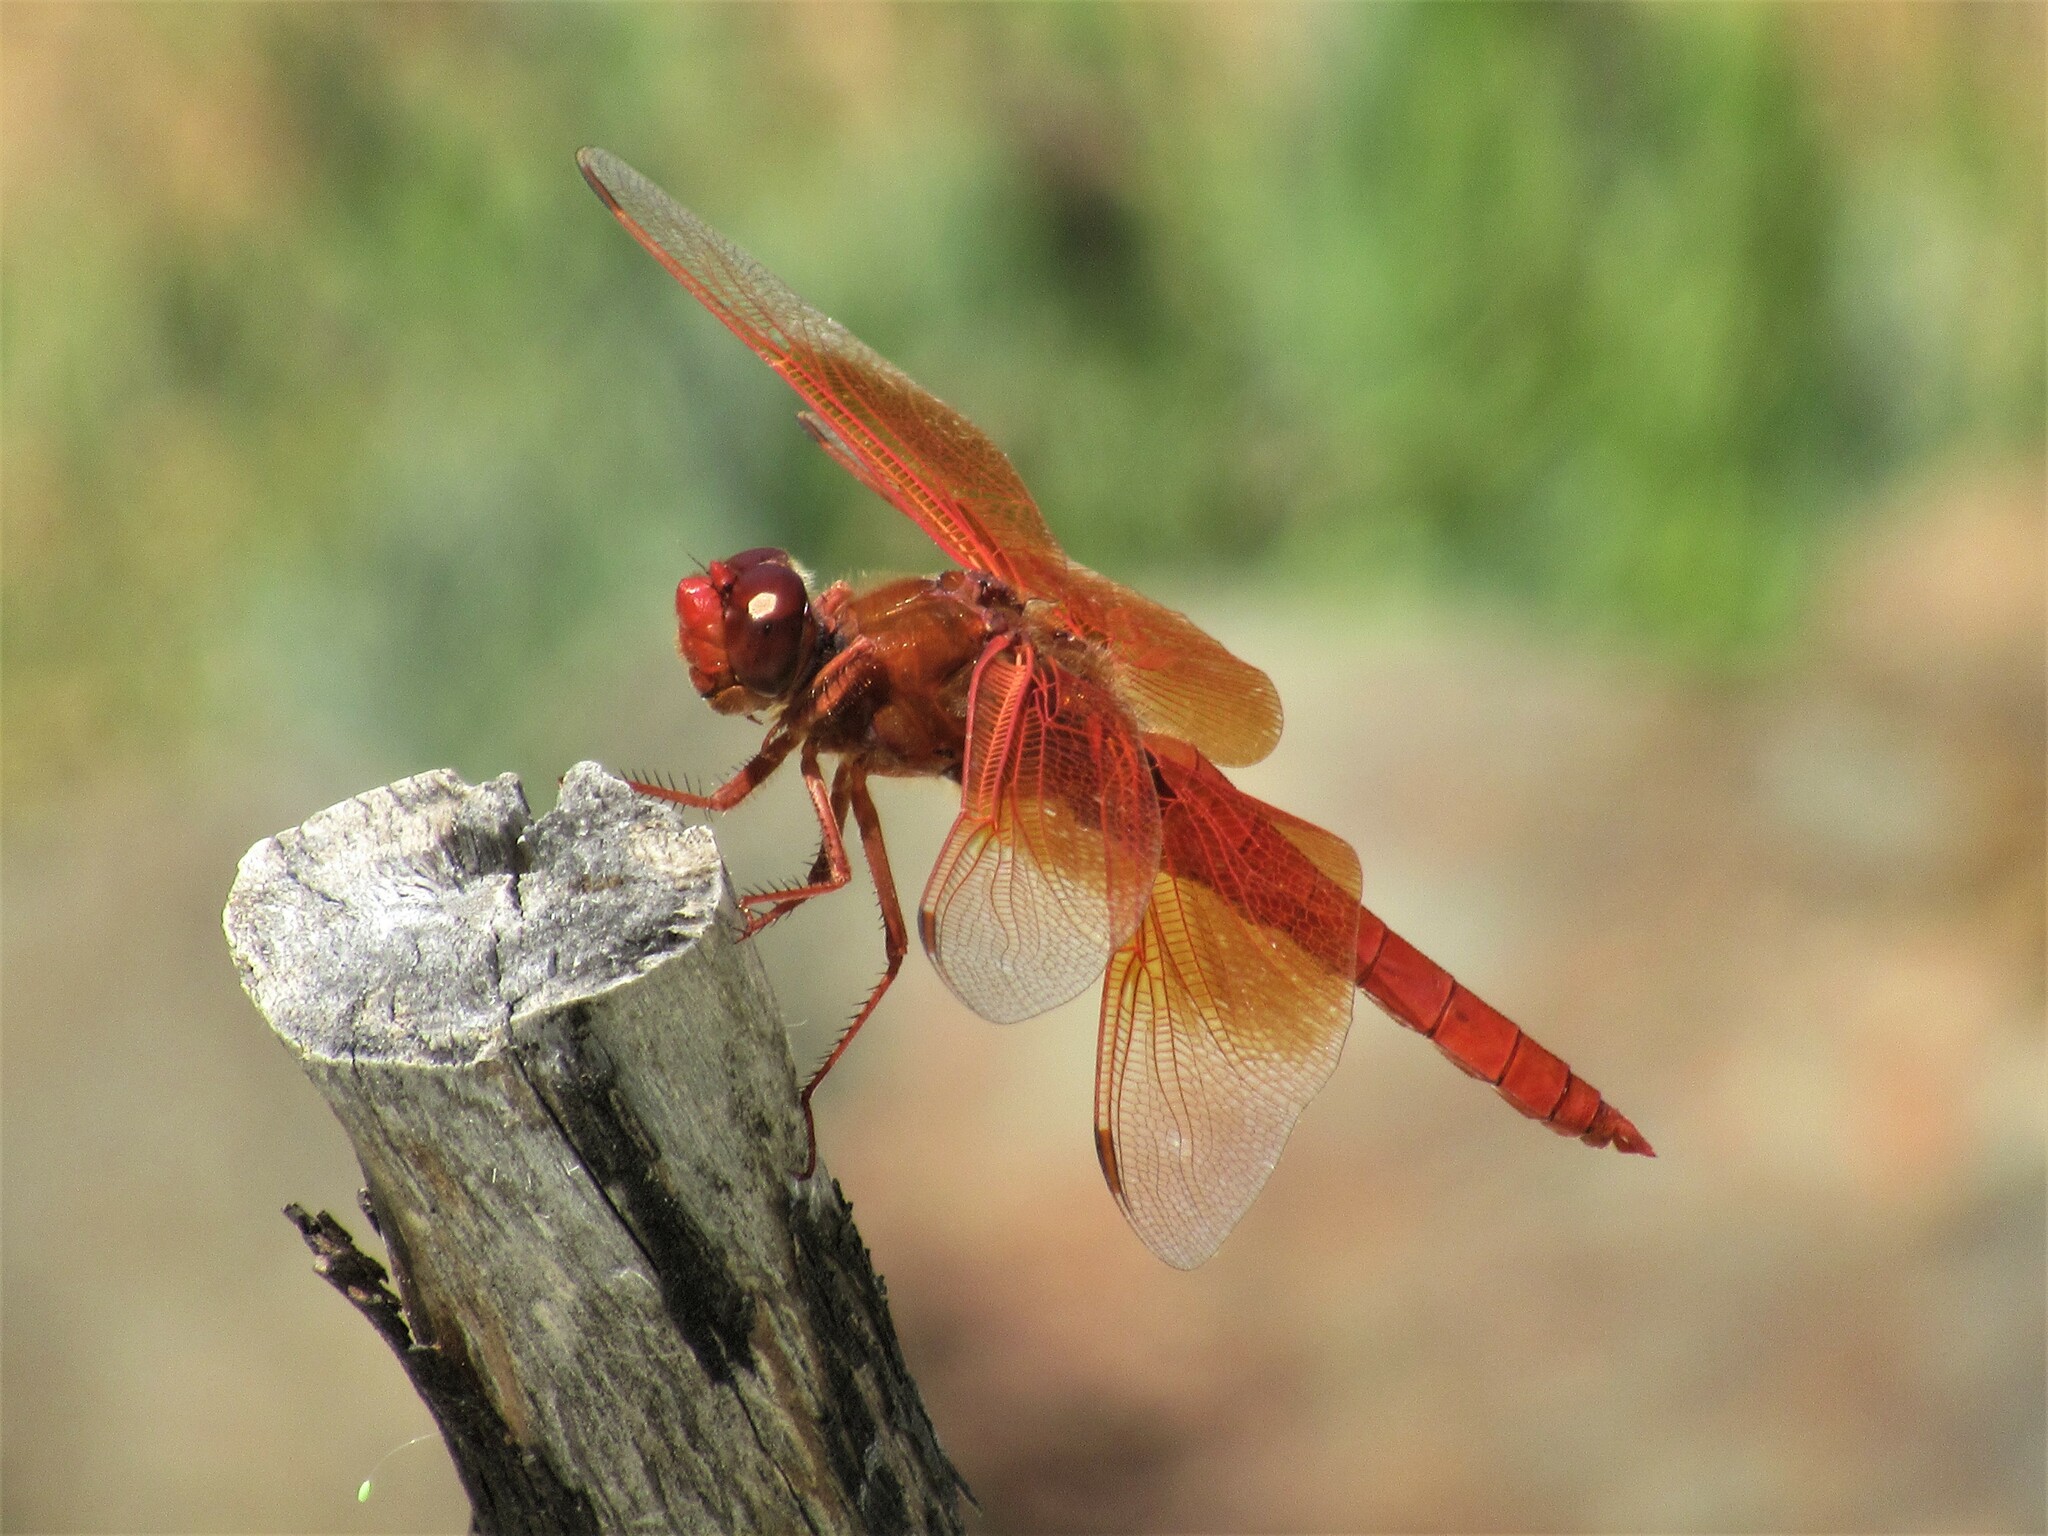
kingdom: Animalia
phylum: Arthropoda
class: Insecta
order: Odonata
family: Libellulidae
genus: Libellula
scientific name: Libellula saturata
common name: Flame skimmer
